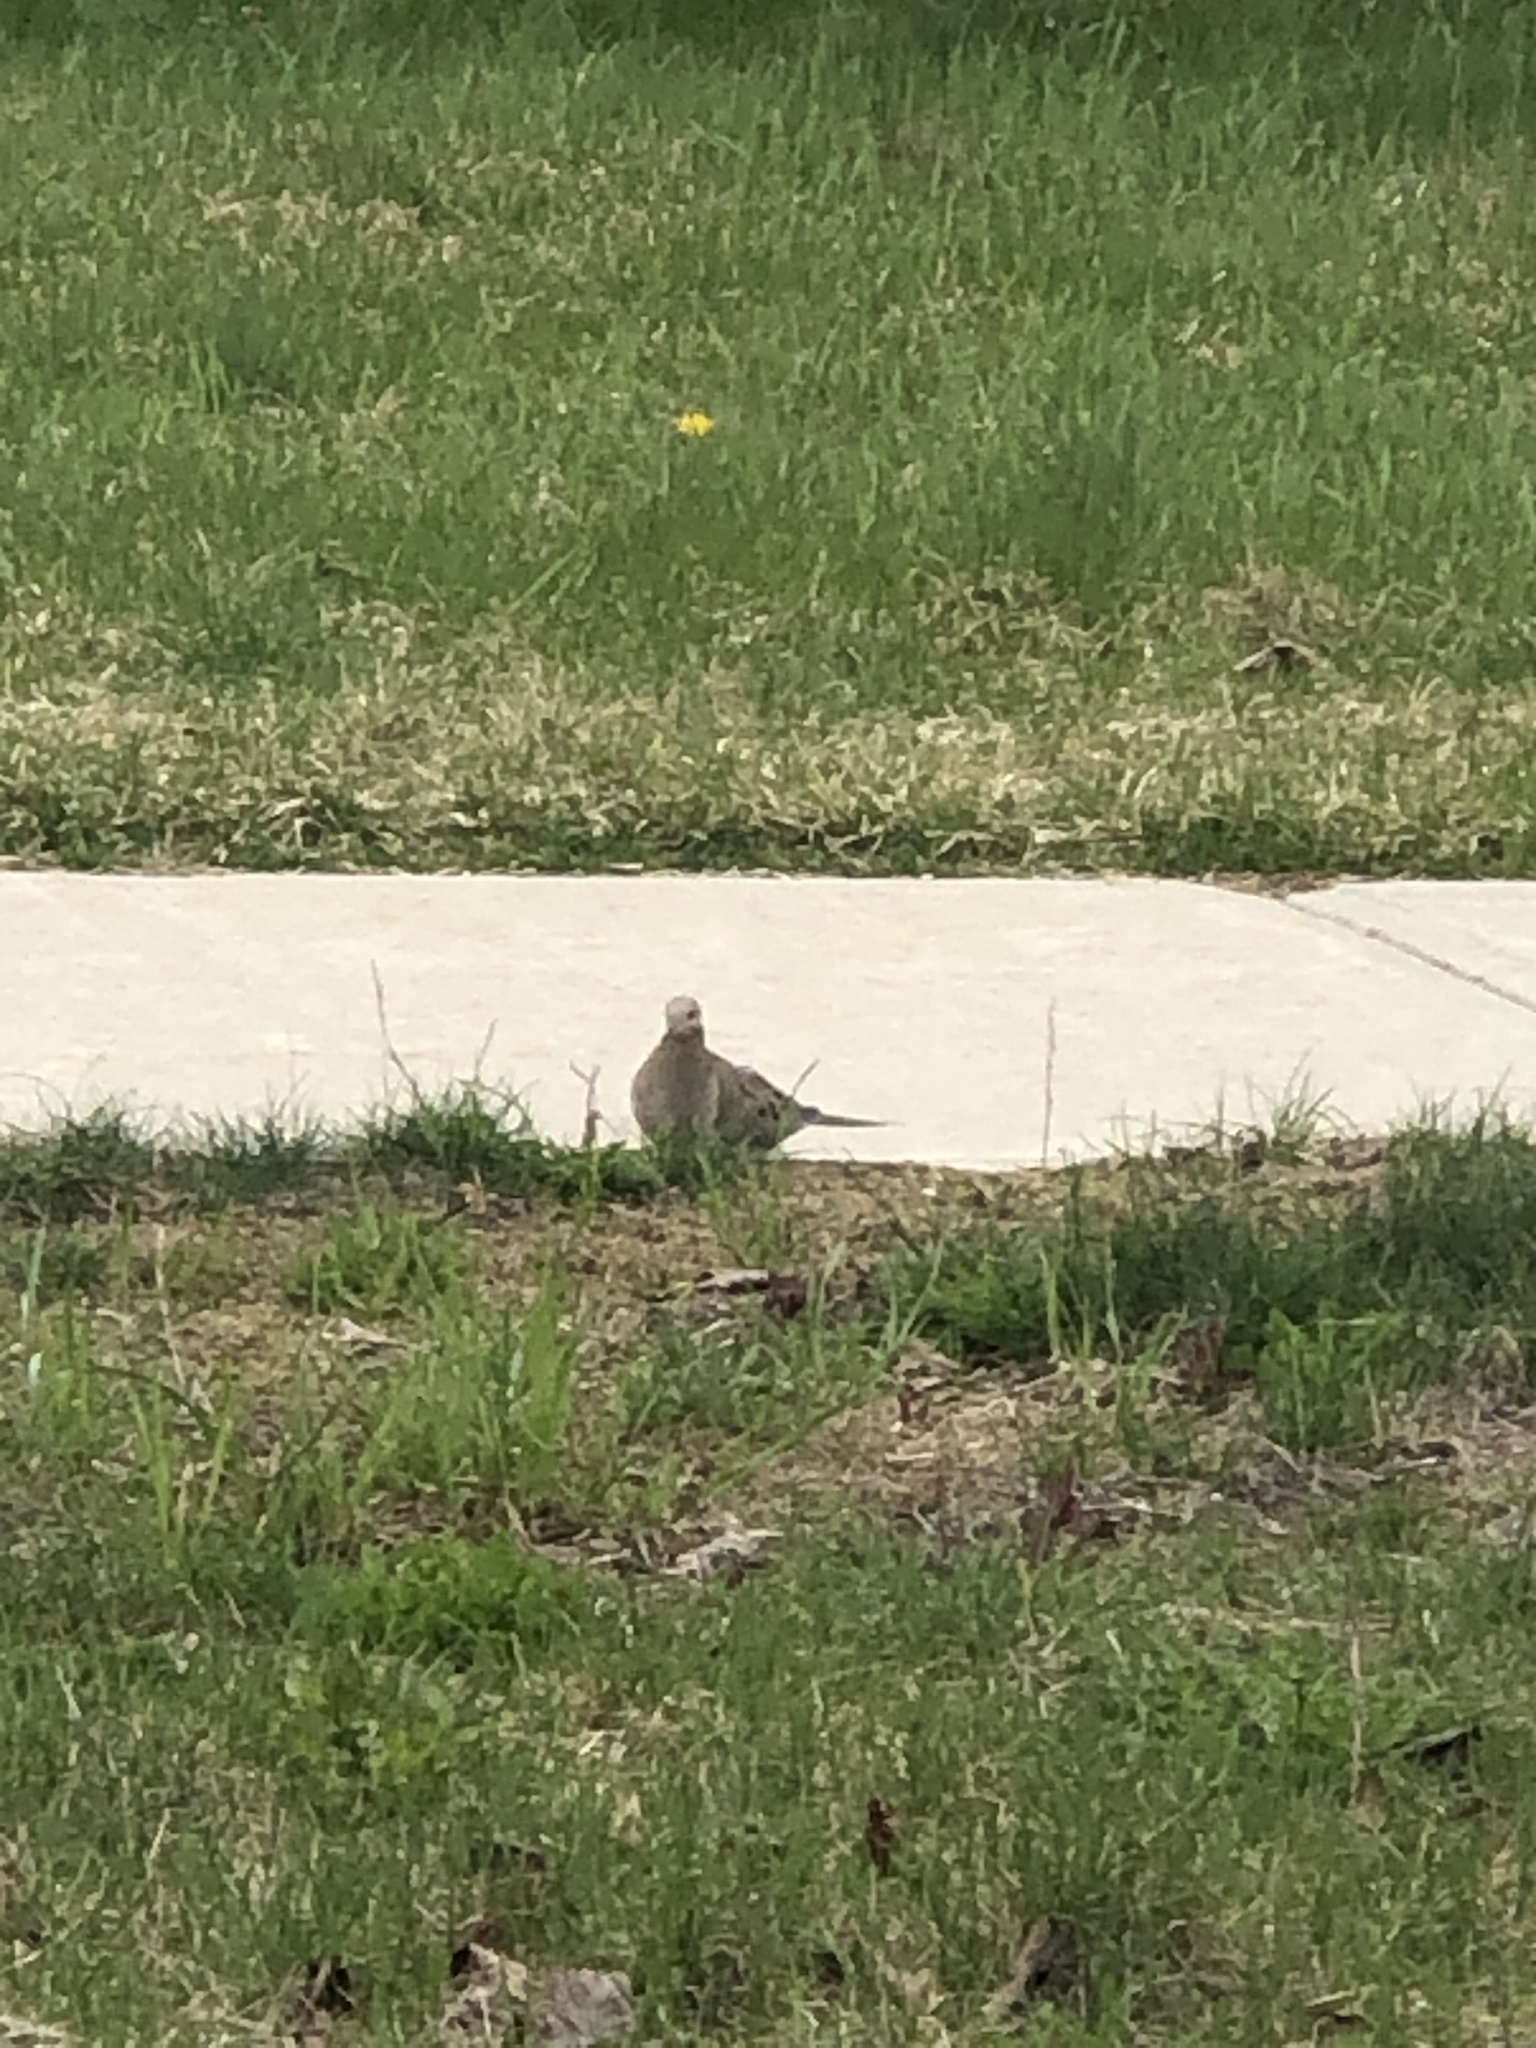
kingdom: Animalia
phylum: Chordata
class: Aves
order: Columbiformes
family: Columbidae
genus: Zenaida
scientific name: Zenaida macroura
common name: Mourning dove
